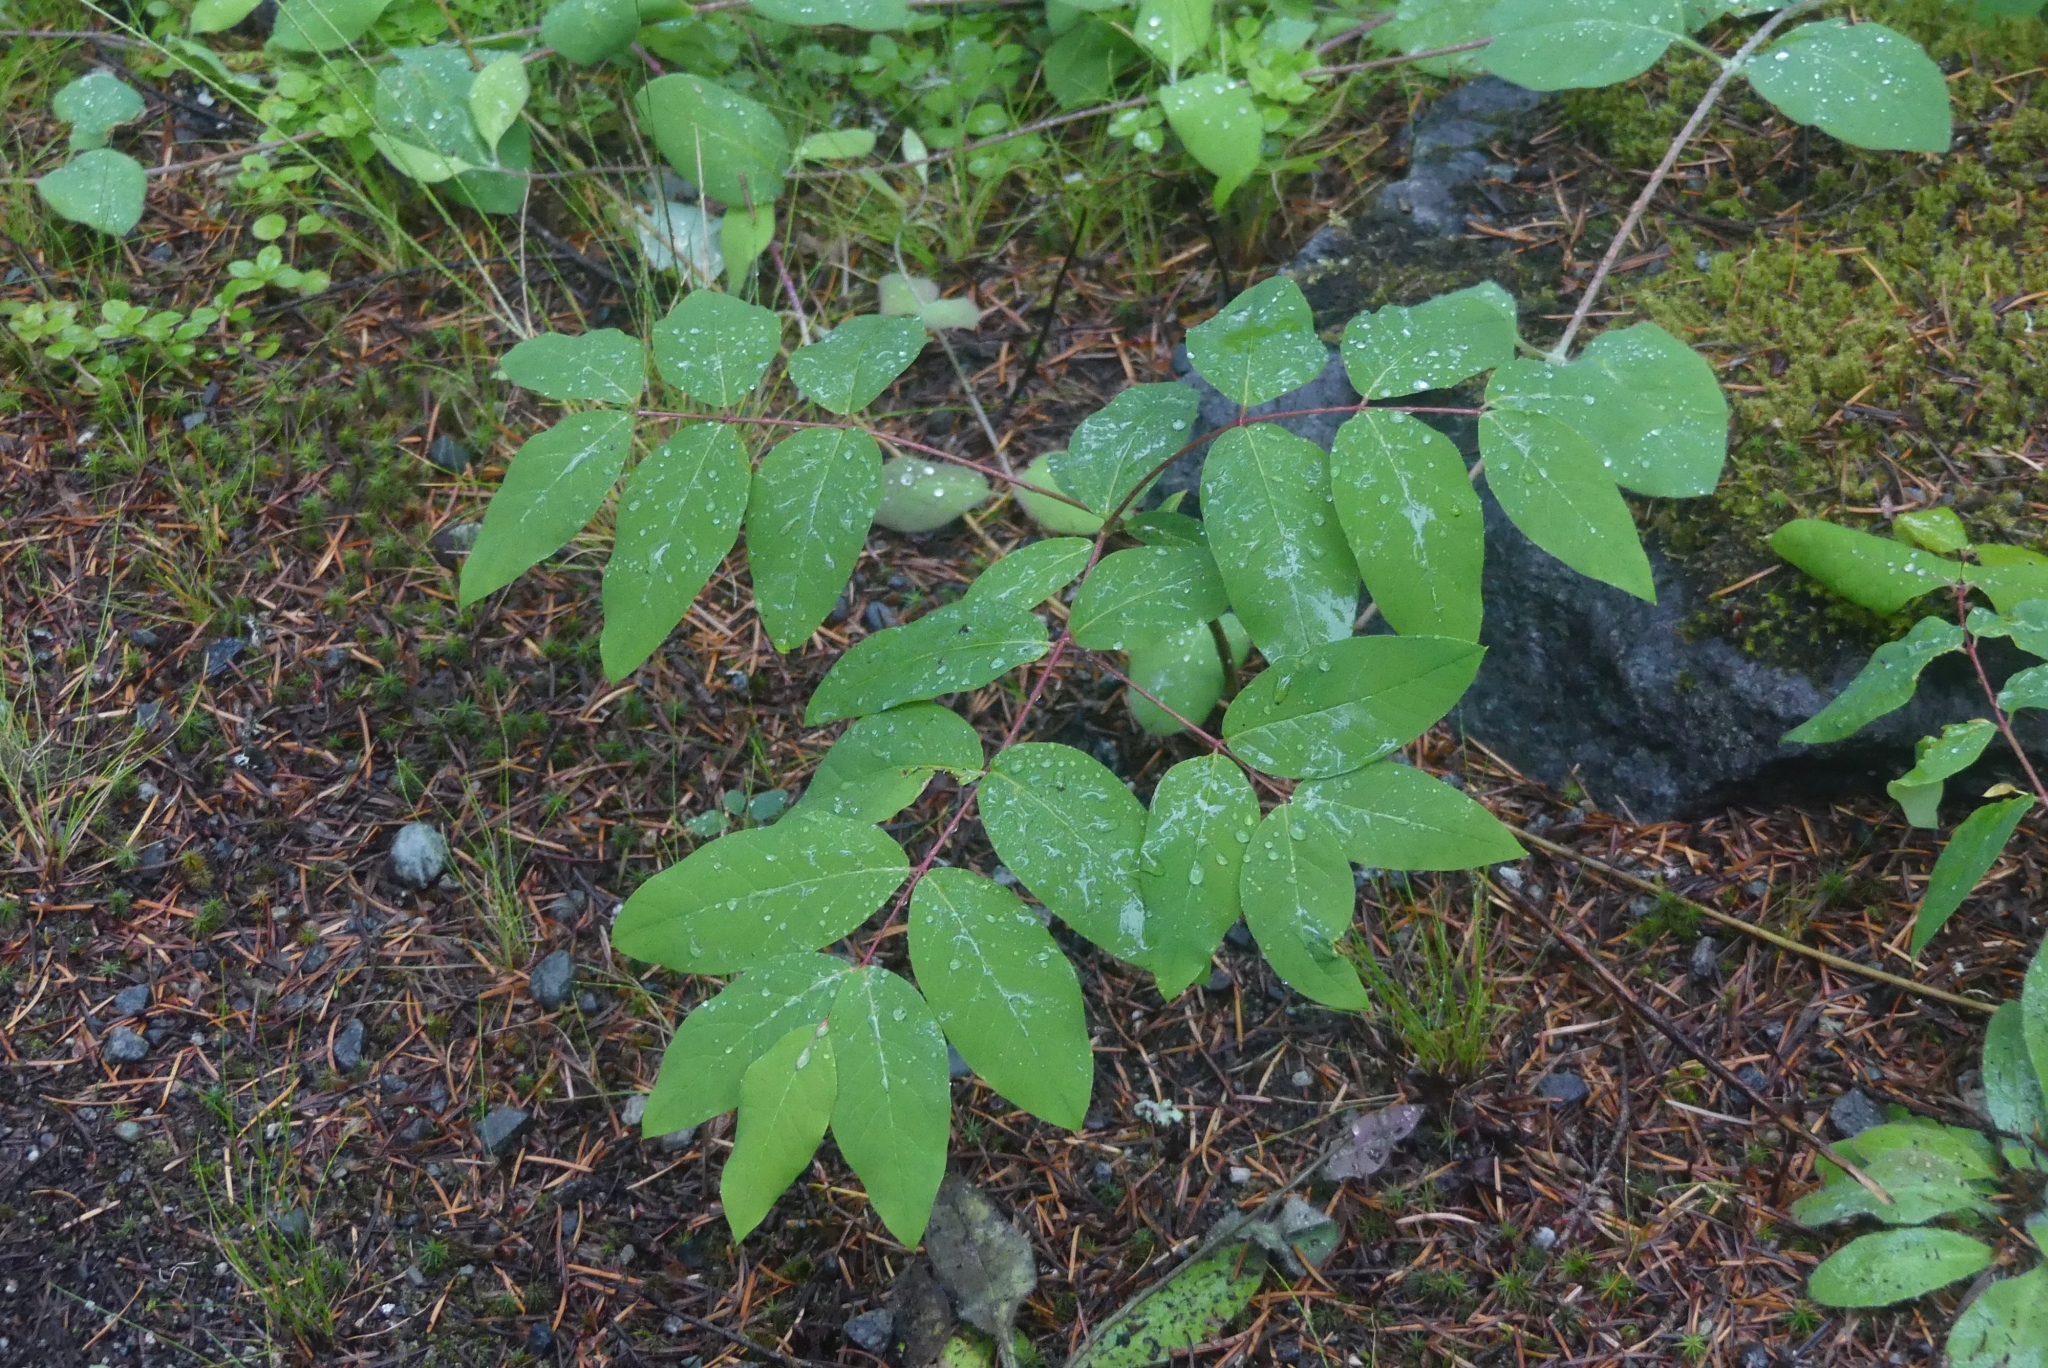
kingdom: Plantae
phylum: Tracheophyta
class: Magnoliopsida
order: Gentianales
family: Apocynaceae
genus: Apocynum
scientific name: Apocynum androsaemifolium
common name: Spreading dogbane
